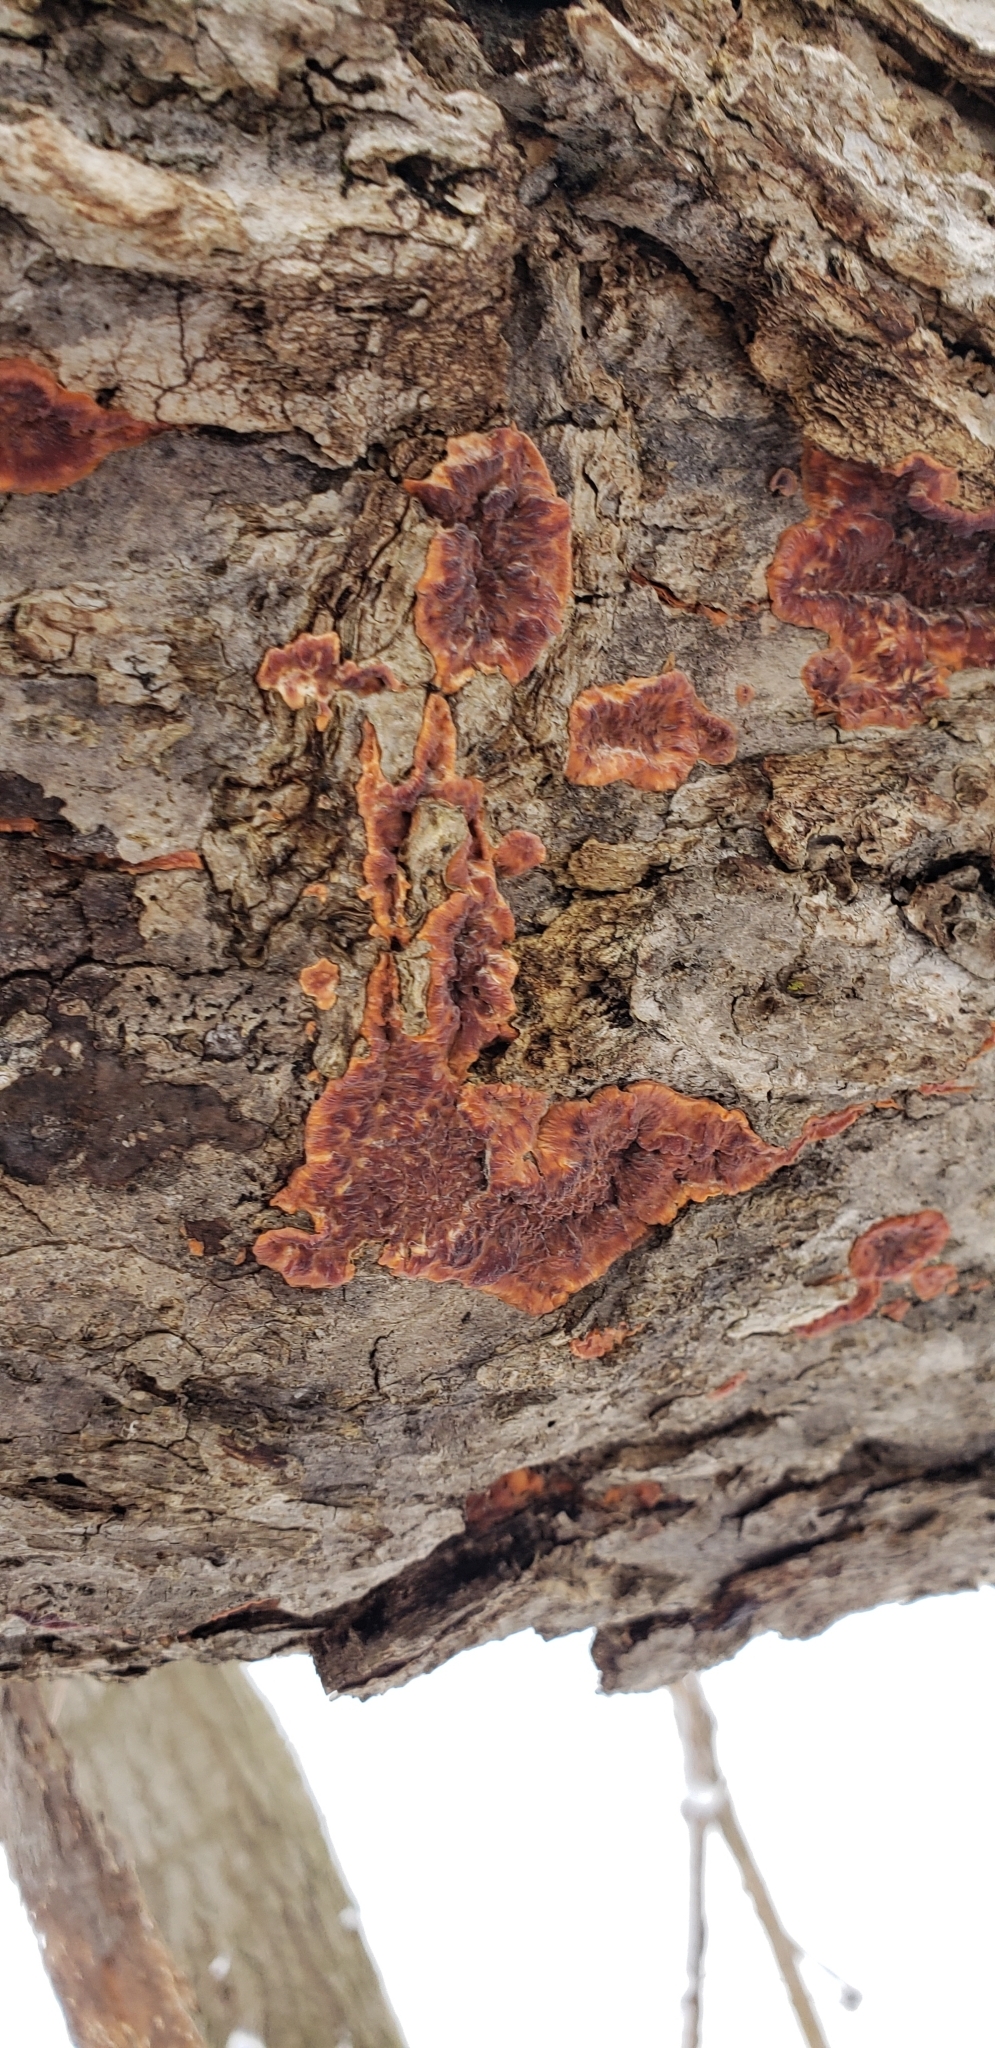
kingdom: Fungi
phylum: Basidiomycota
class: Agaricomycetes
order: Polyporales
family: Meruliaceae
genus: Phlebia
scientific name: Phlebia radiata
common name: Wrinkled crust
